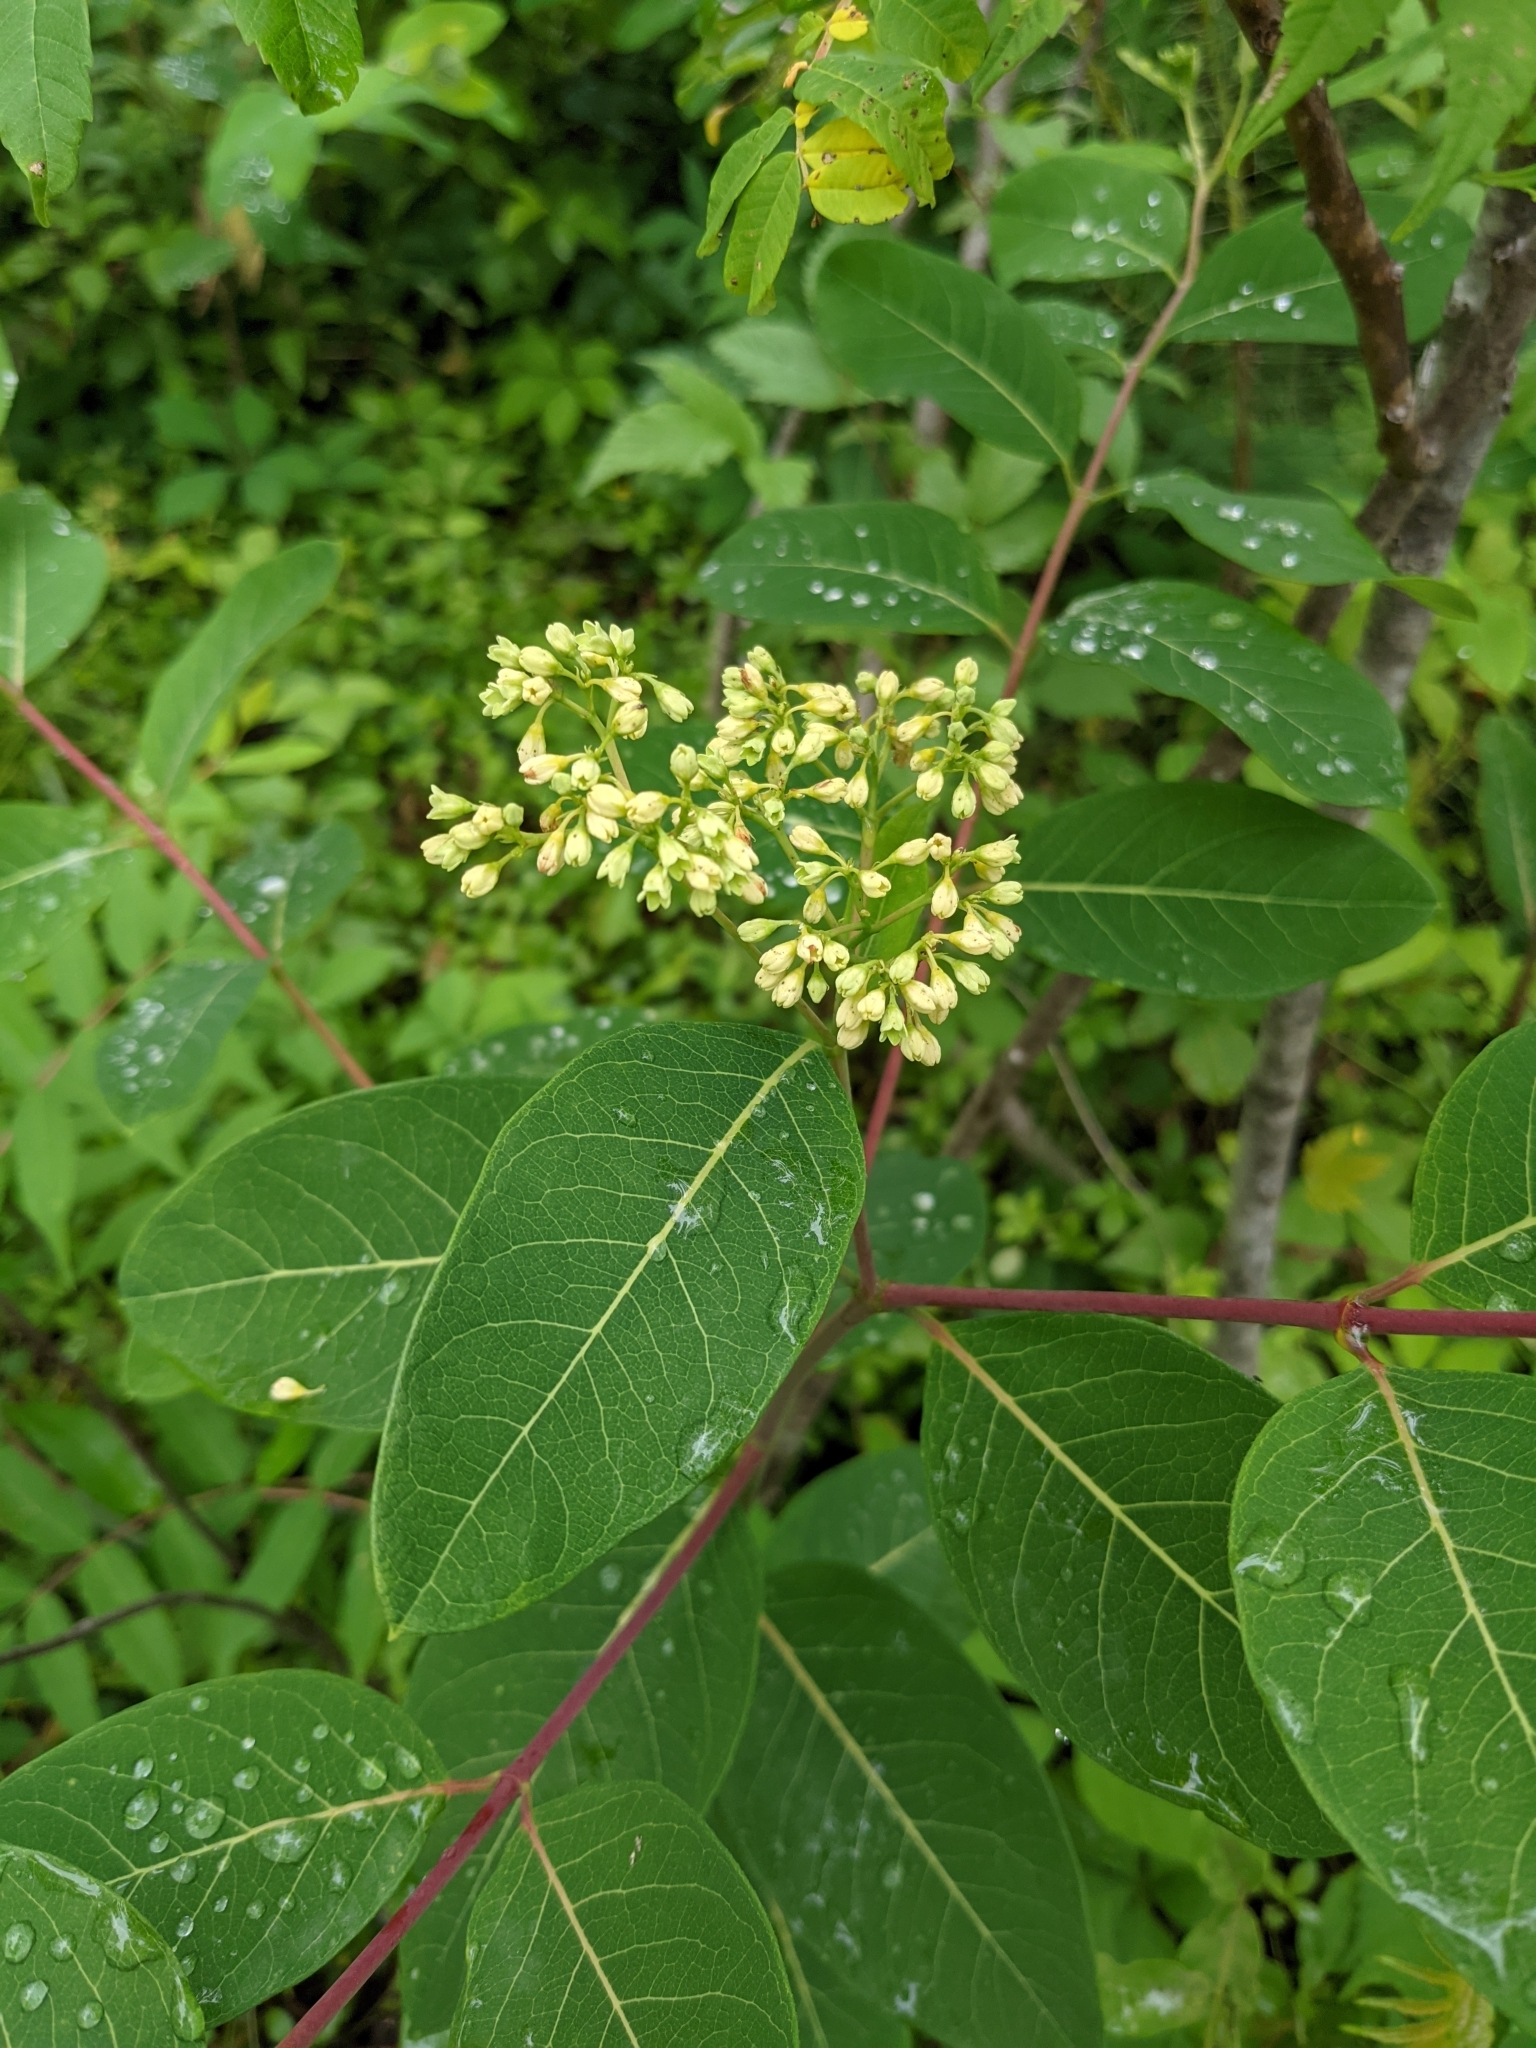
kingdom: Plantae
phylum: Tracheophyta
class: Magnoliopsida
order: Gentianales
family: Apocynaceae
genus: Apocynum
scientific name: Apocynum cannabinum
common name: Hemp dogbane
